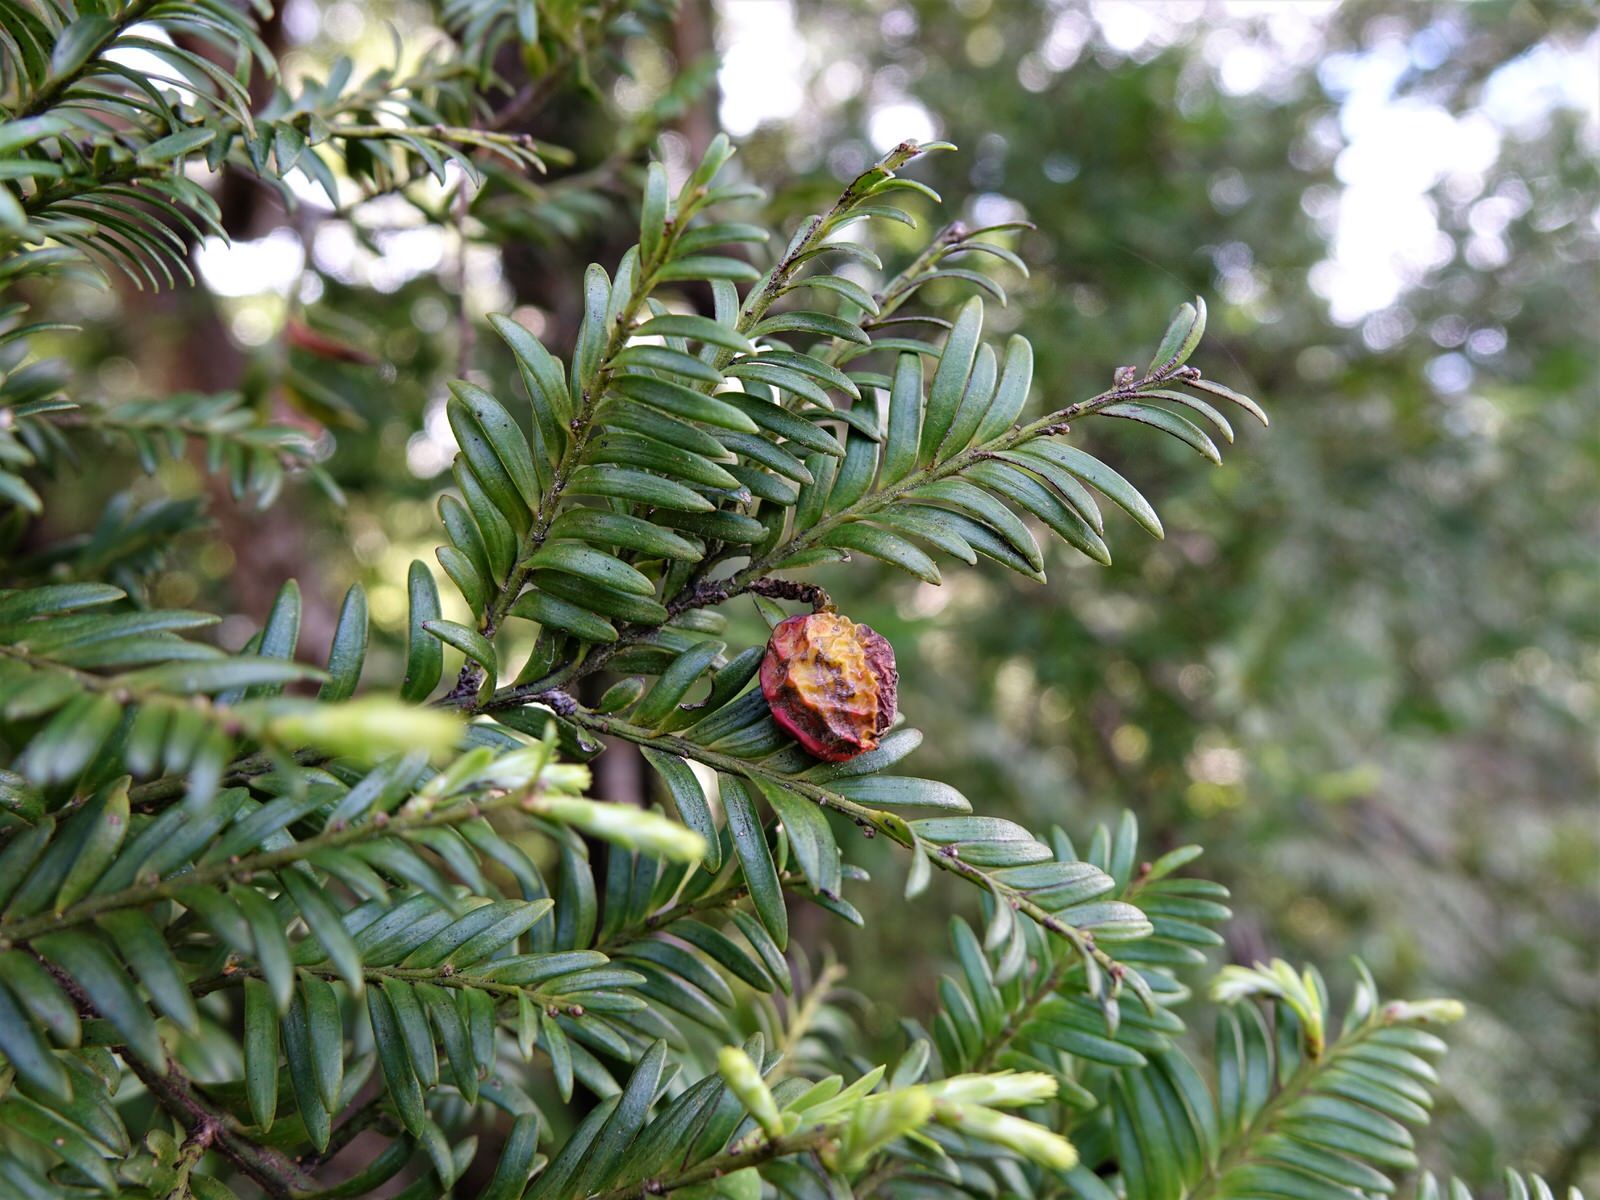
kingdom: Plantae
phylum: Tracheophyta
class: Pinopsida
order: Pinales
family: Podocarpaceae
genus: Prumnopitys
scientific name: Prumnopitys ferruginea
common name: Brown pine
